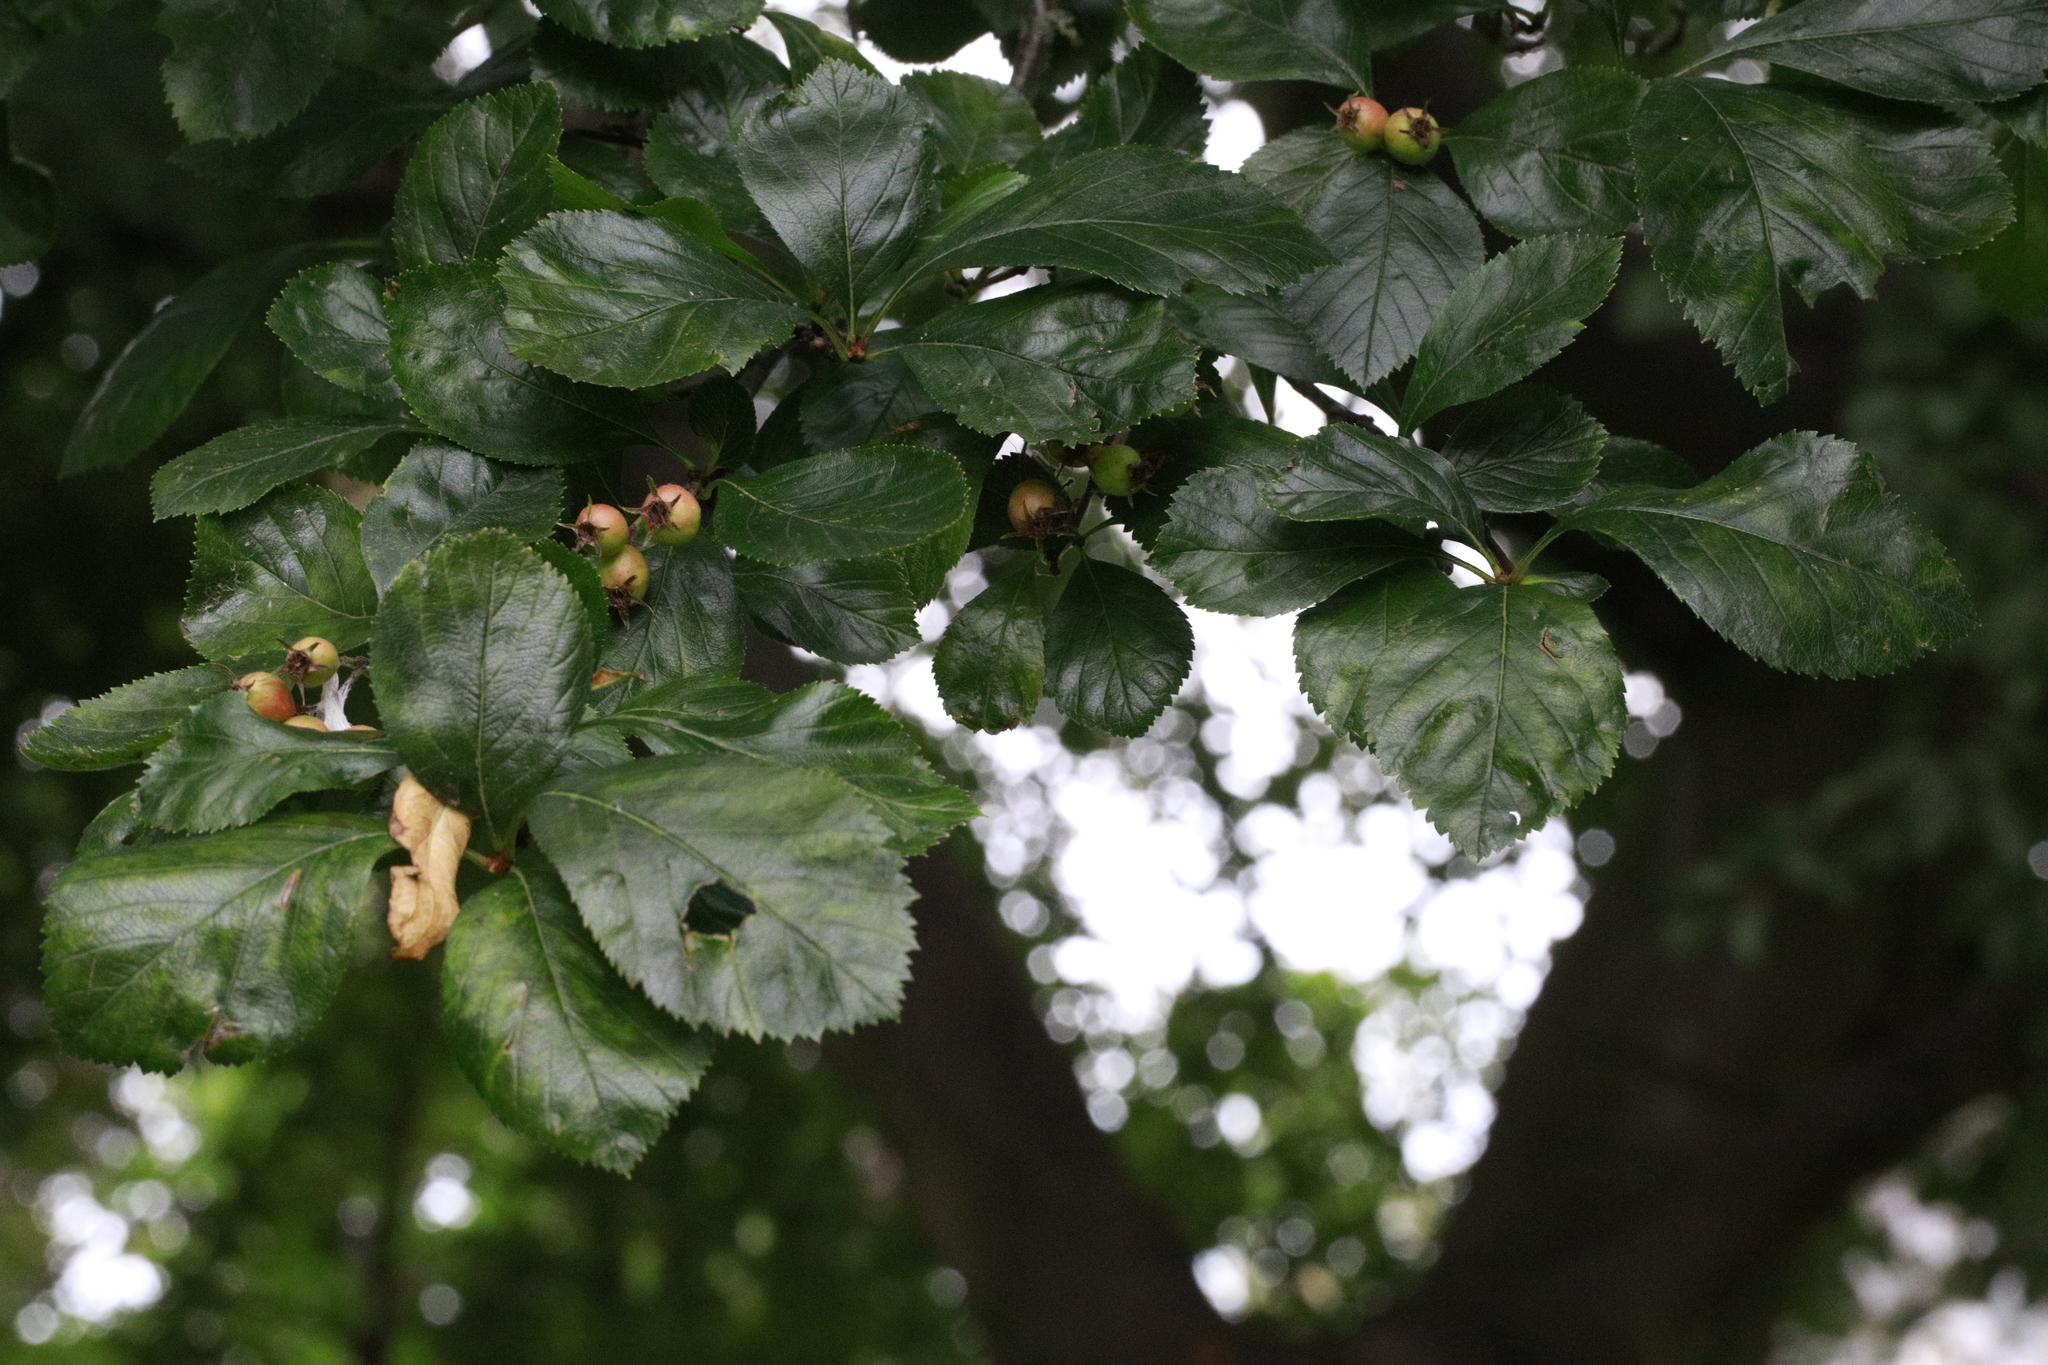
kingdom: Plantae
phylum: Tracheophyta
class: Magnoliopsida
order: Rosales
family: Rosaceae
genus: Crataegus
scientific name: Crataegus crus-galli
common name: Cockspurthorn
